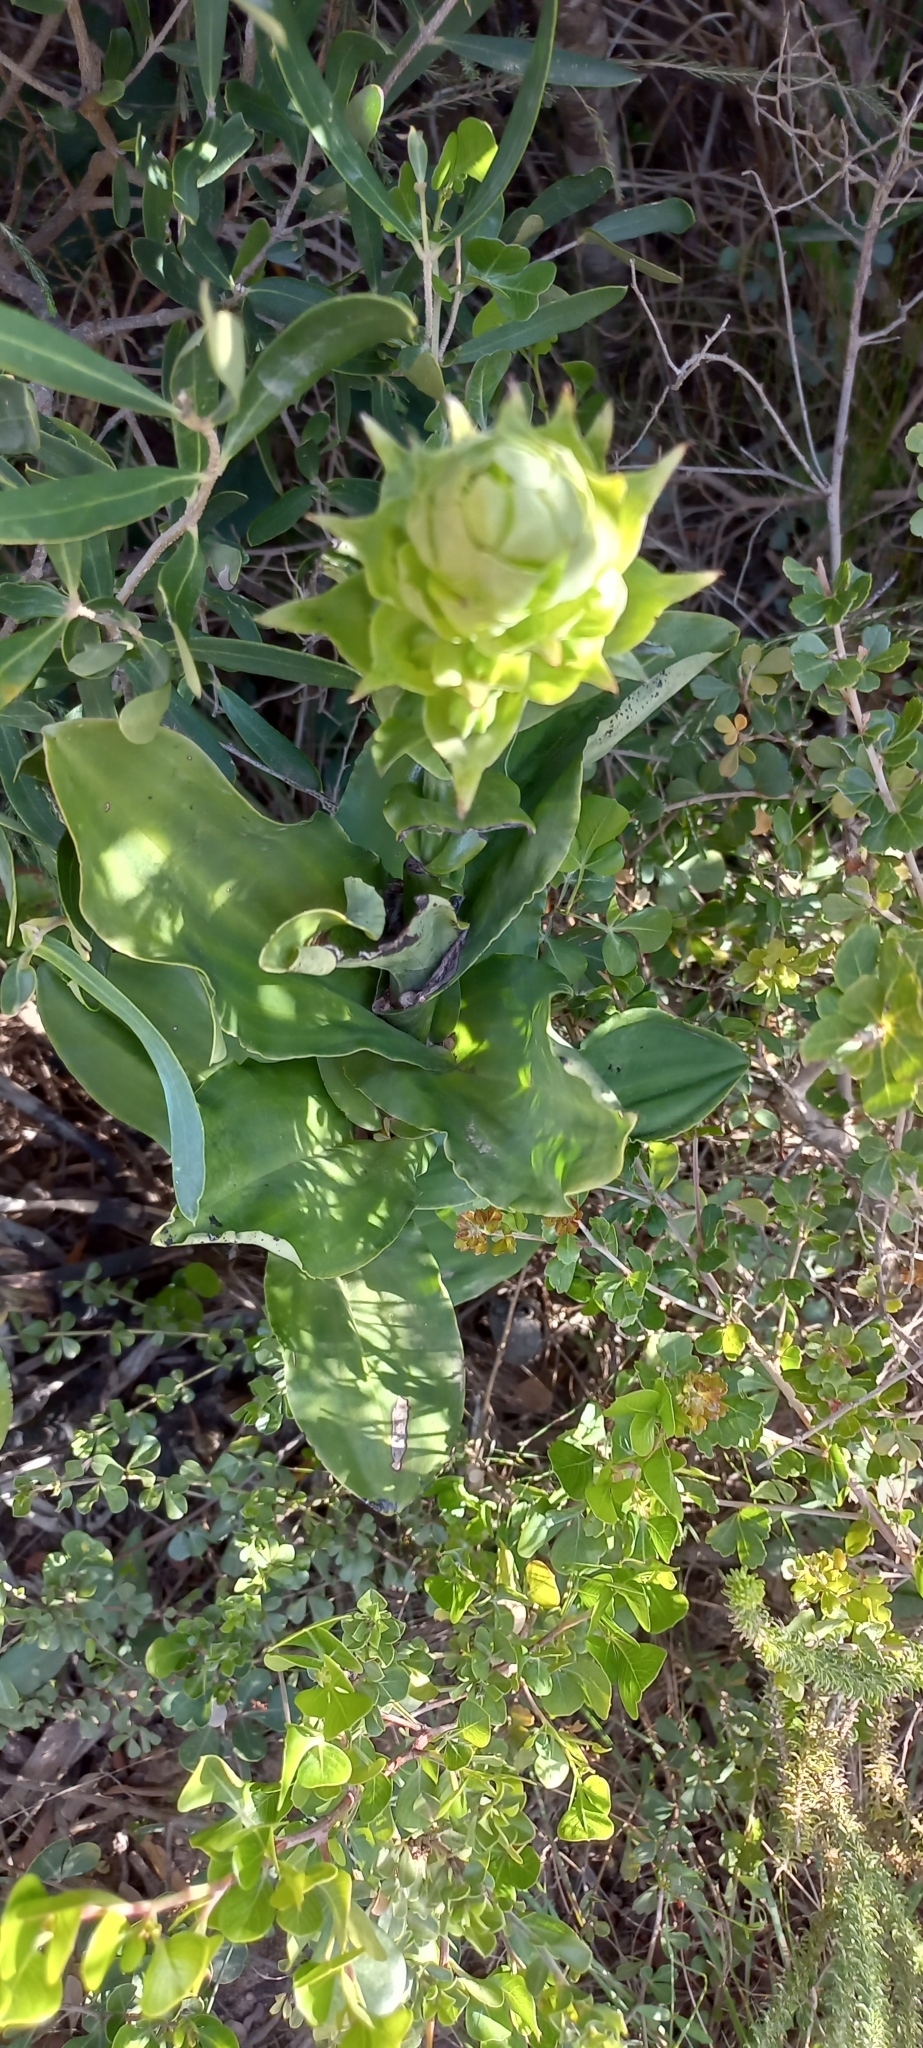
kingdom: Plantae
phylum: Tracheophyta
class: Liliopsida
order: Asparagales
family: Orchidaceae
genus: Bonatea
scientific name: Bonatea speciosa
